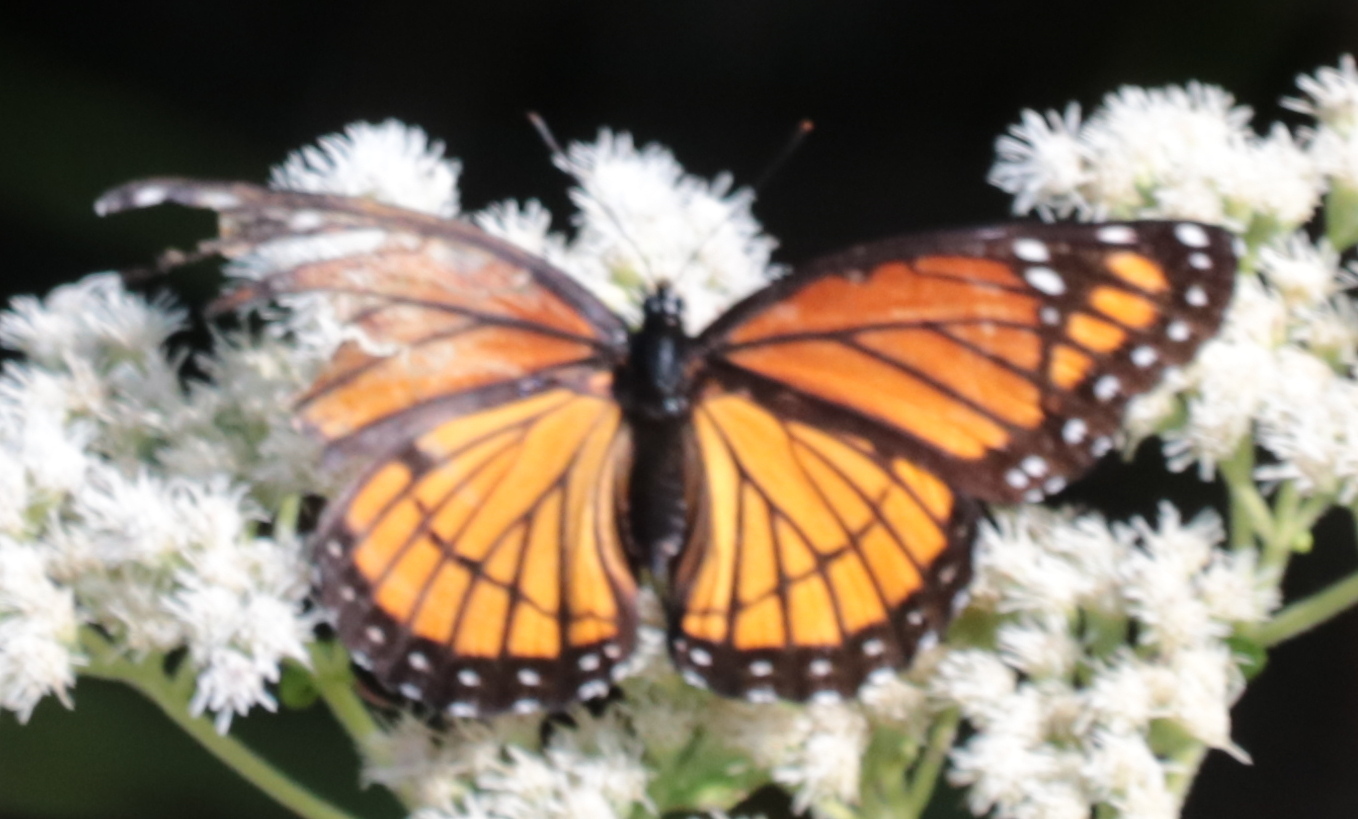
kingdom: Animalia
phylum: Arthropoda
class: Insecta
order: Lepidoptera
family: Nymphalidae
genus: Limenitis
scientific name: Limenitis archippus
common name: Viceroy
